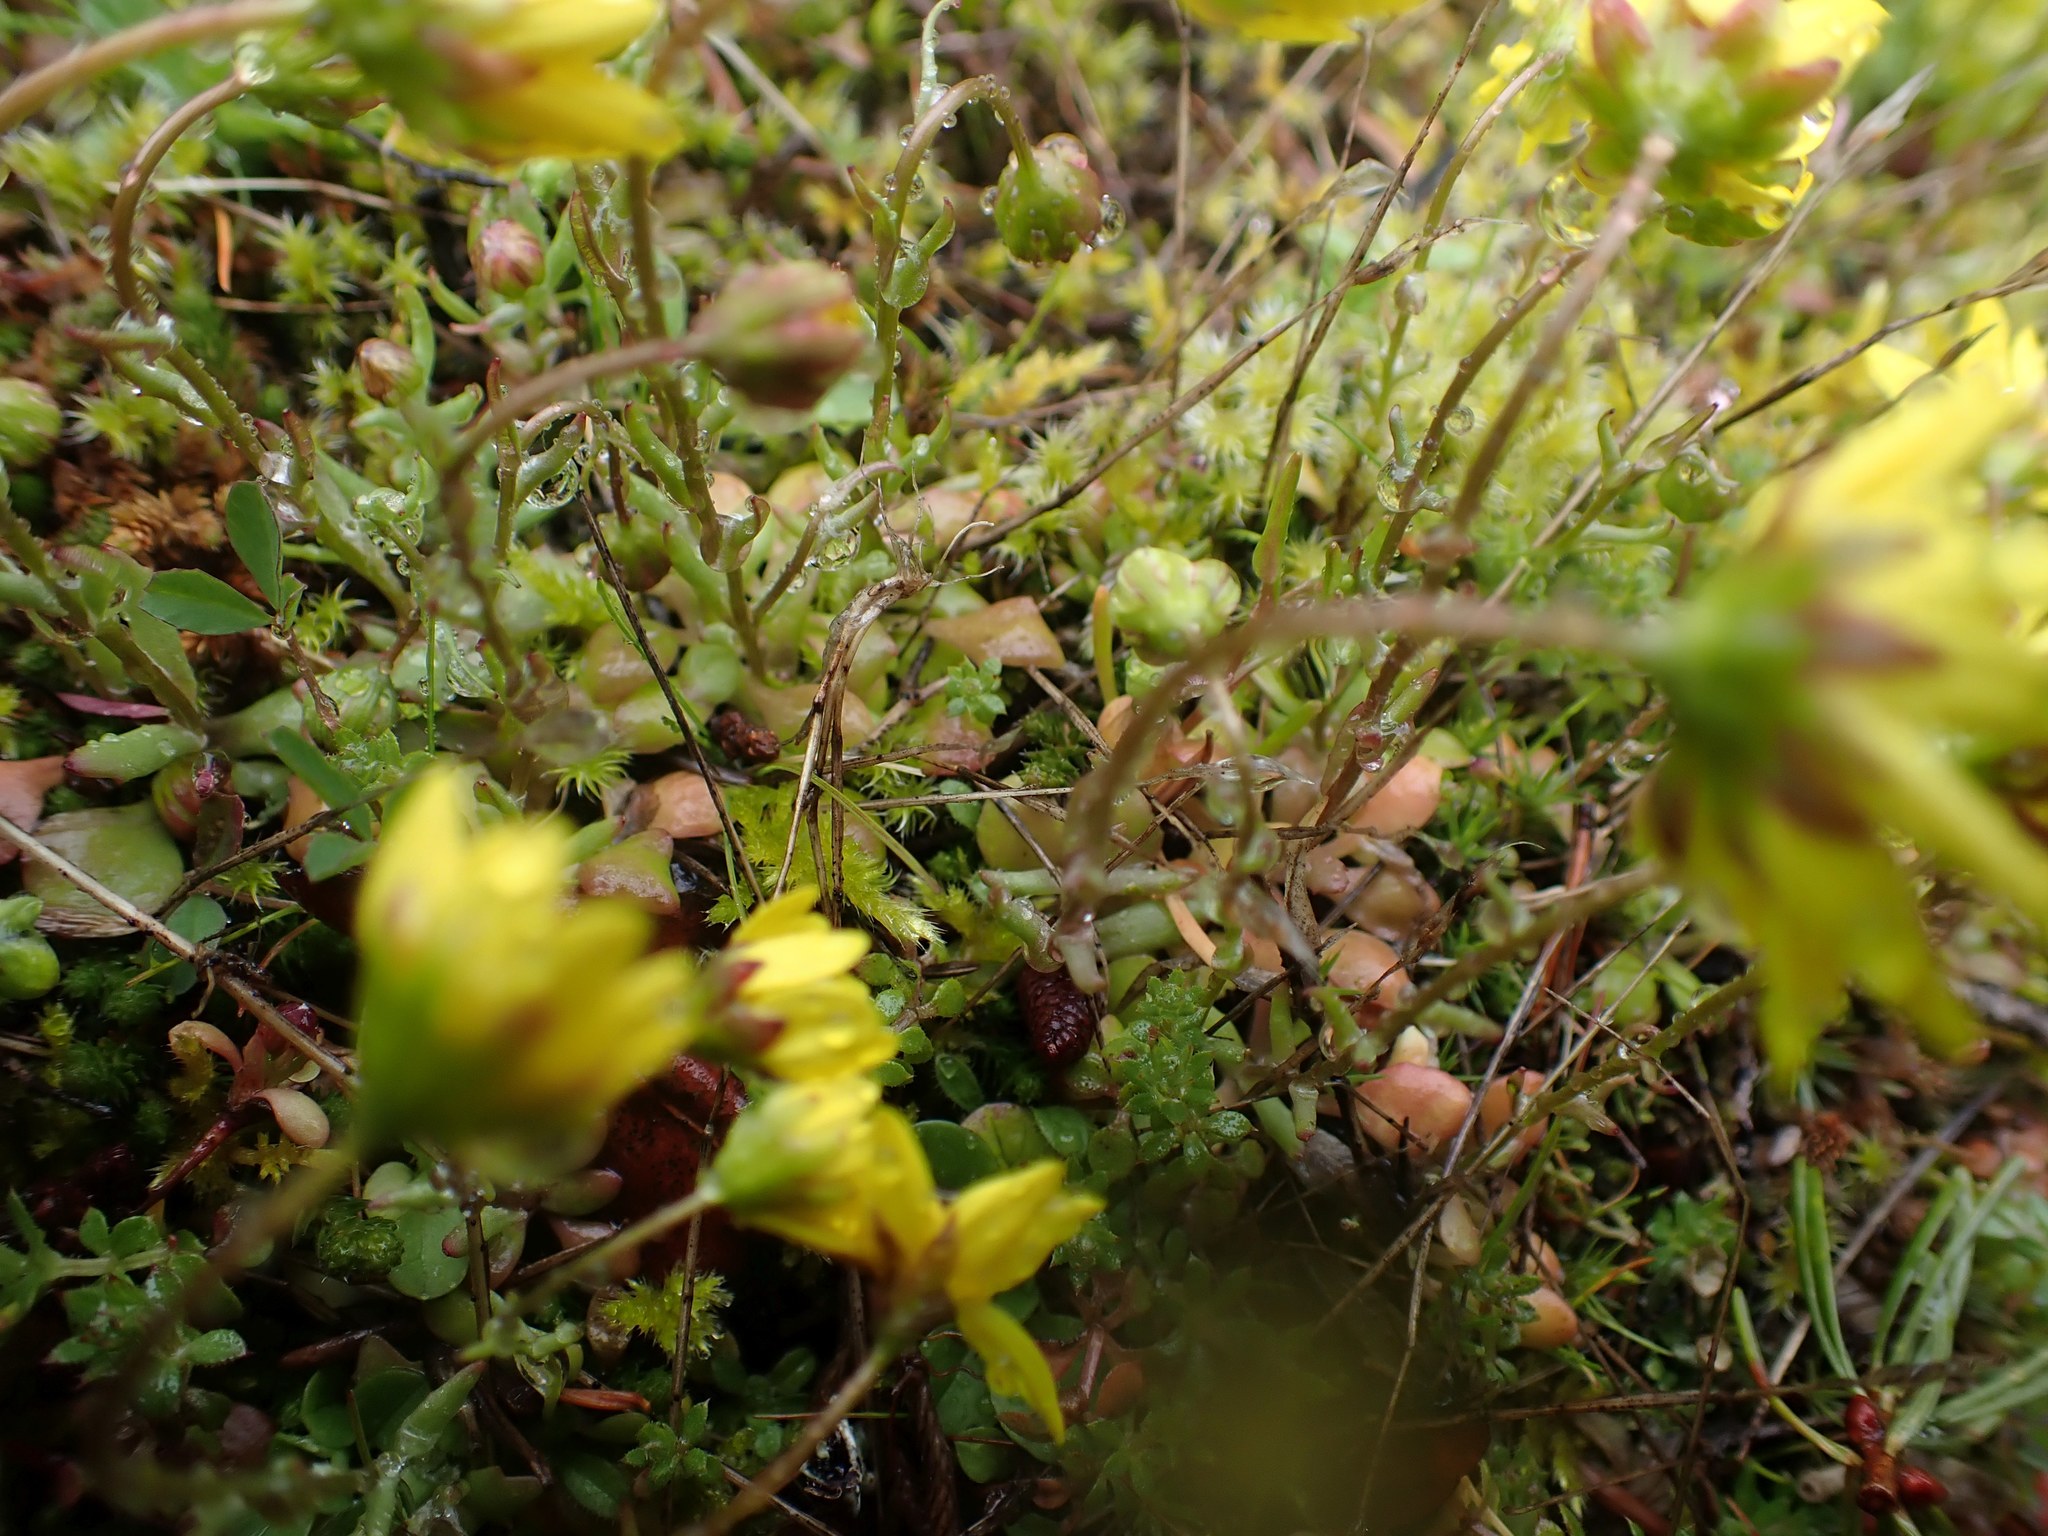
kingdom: Plantae
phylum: Tracheophyta
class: Magnoliopsida
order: Asterales
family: Asteraceae
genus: Crocidium
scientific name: Crocidium multicaule
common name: Common spring gold
